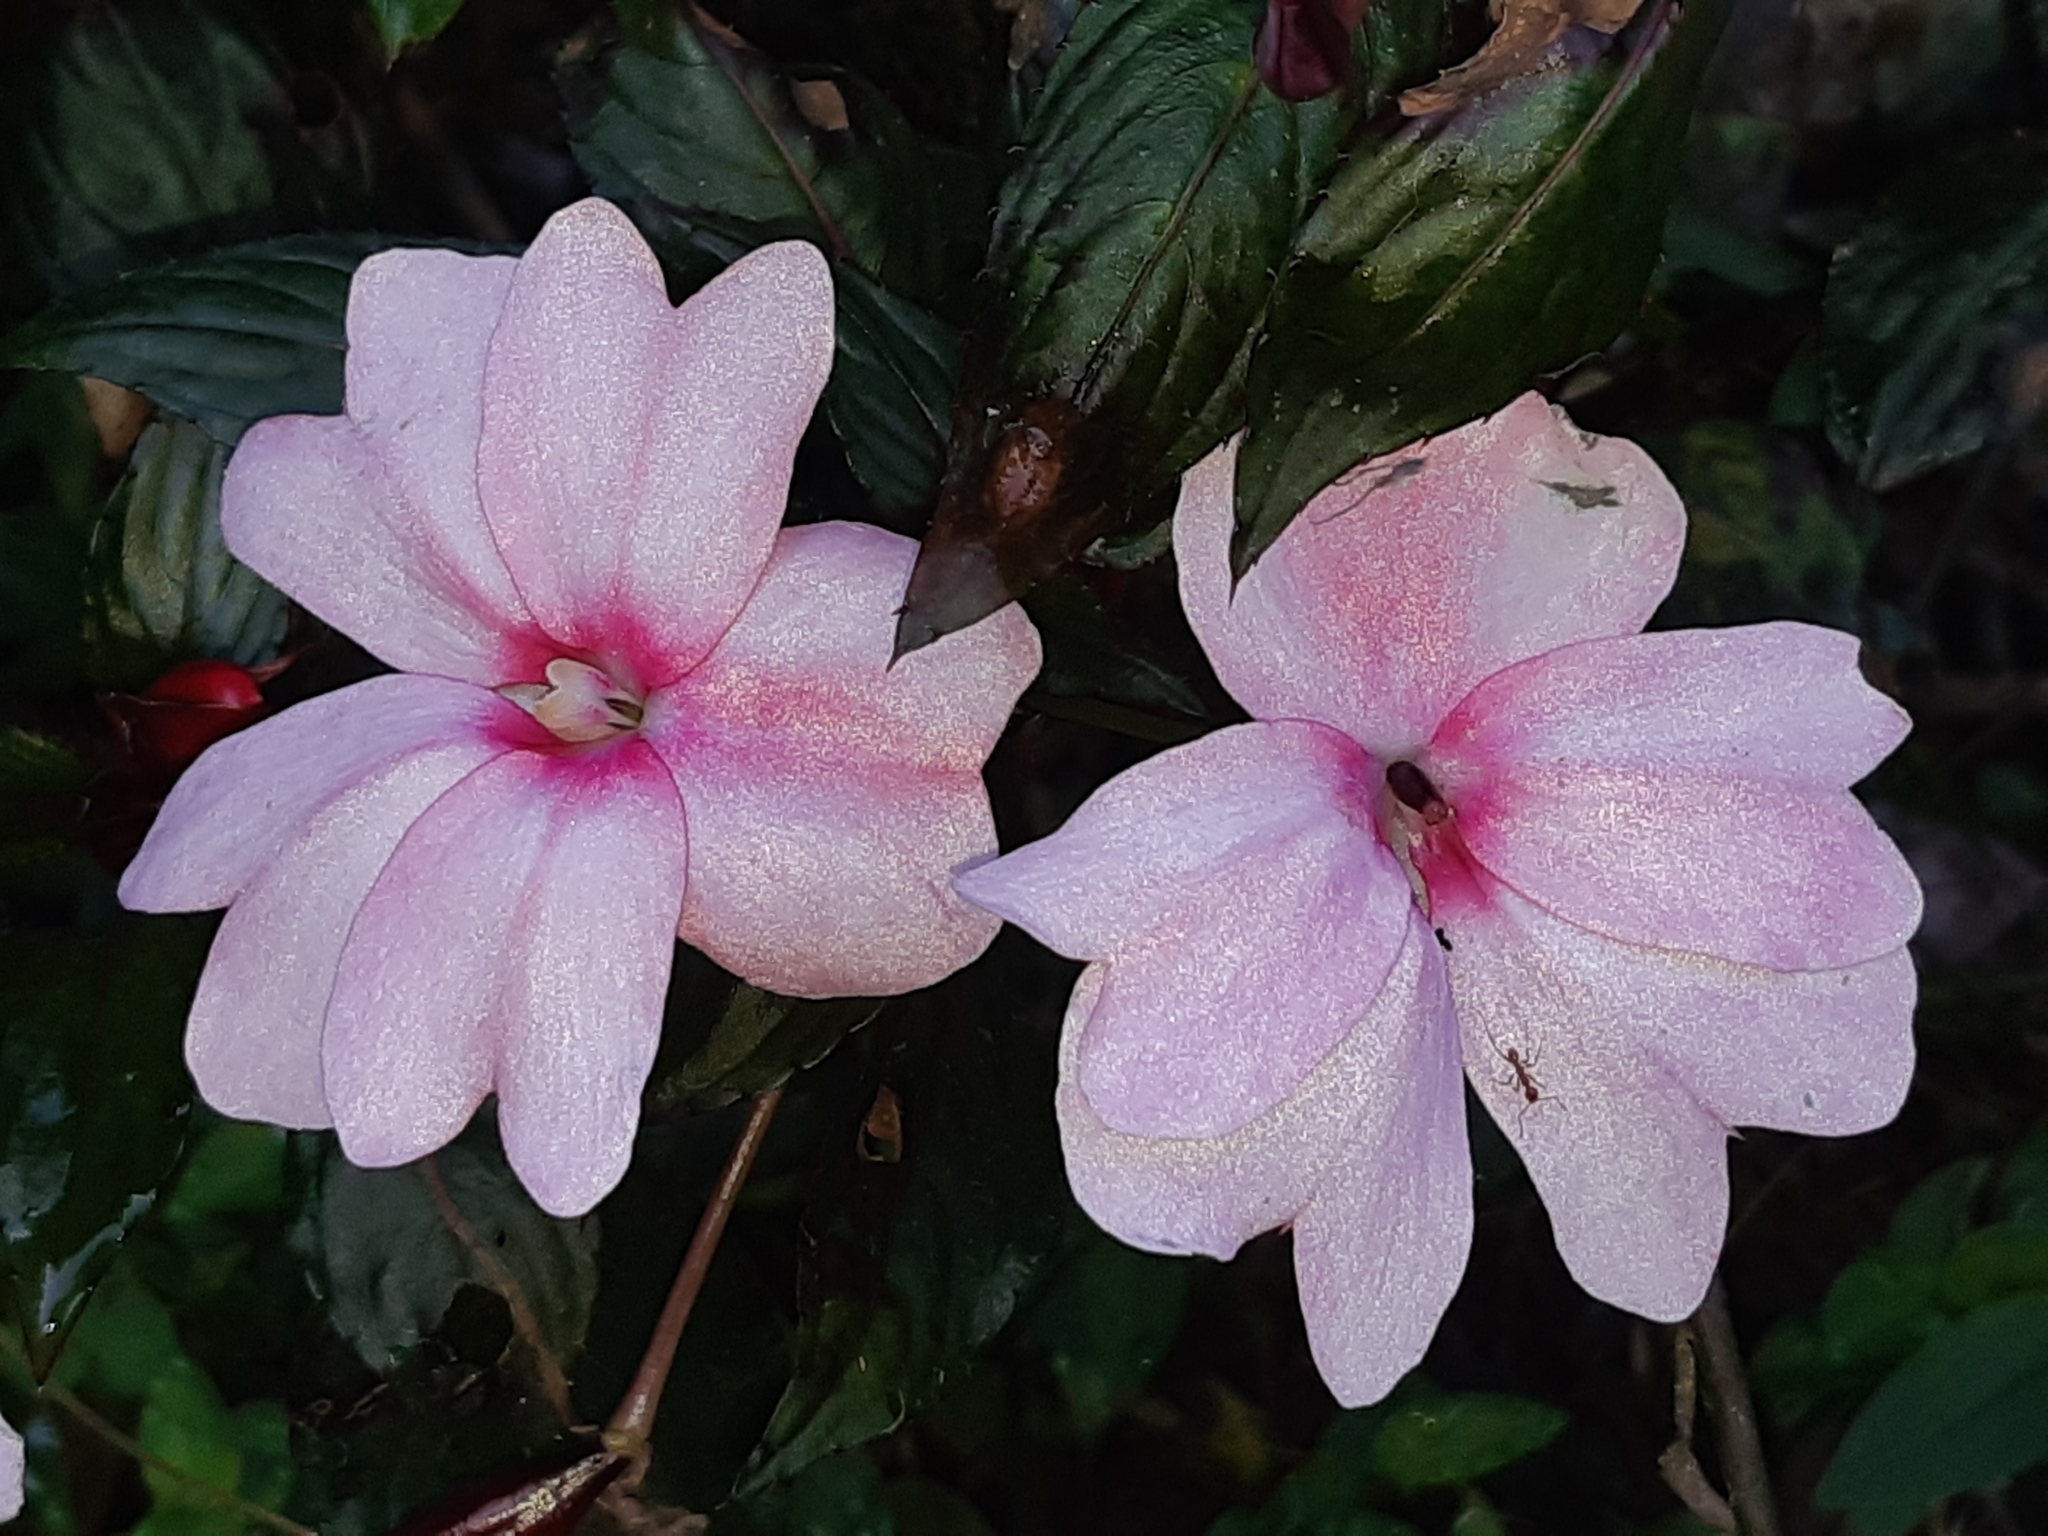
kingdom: Plantae
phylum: Tracheophyta
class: Magnoliopsida
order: Ericales
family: Balsaminaceae
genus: Impatiens
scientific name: Impatiens hawkeri
